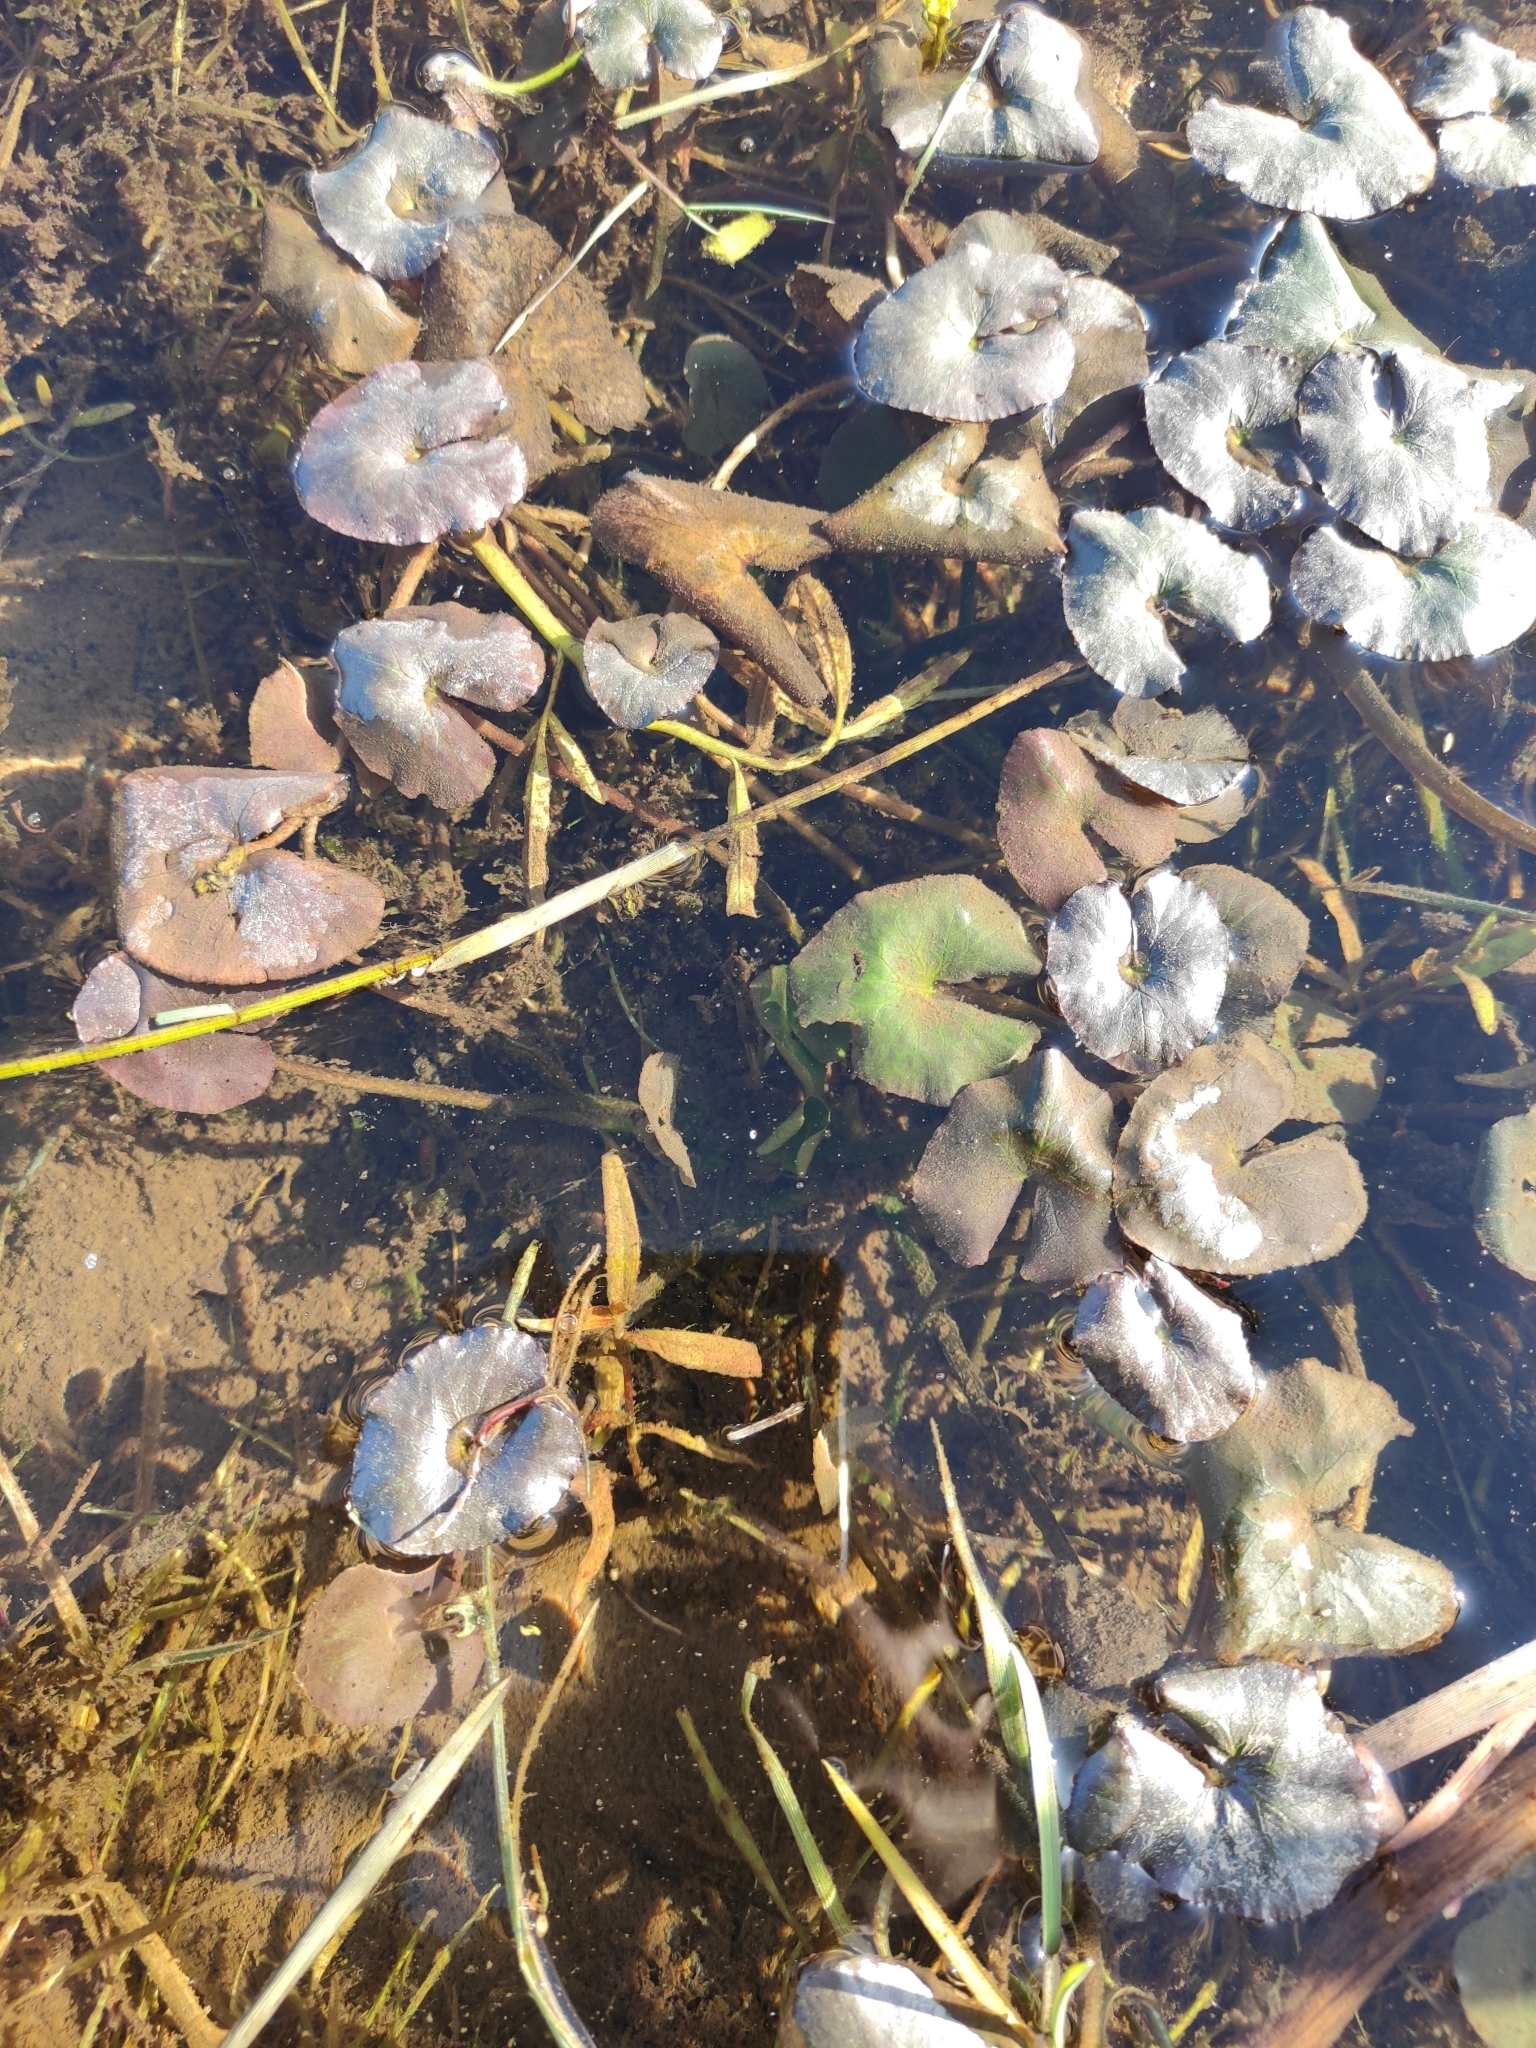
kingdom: Plantae
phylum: Tracheophyta
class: Magnoliopsida
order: Ranunculales
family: Ranunculaceae
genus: Caltha
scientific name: Caltha natans
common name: Floating marsh marigold
